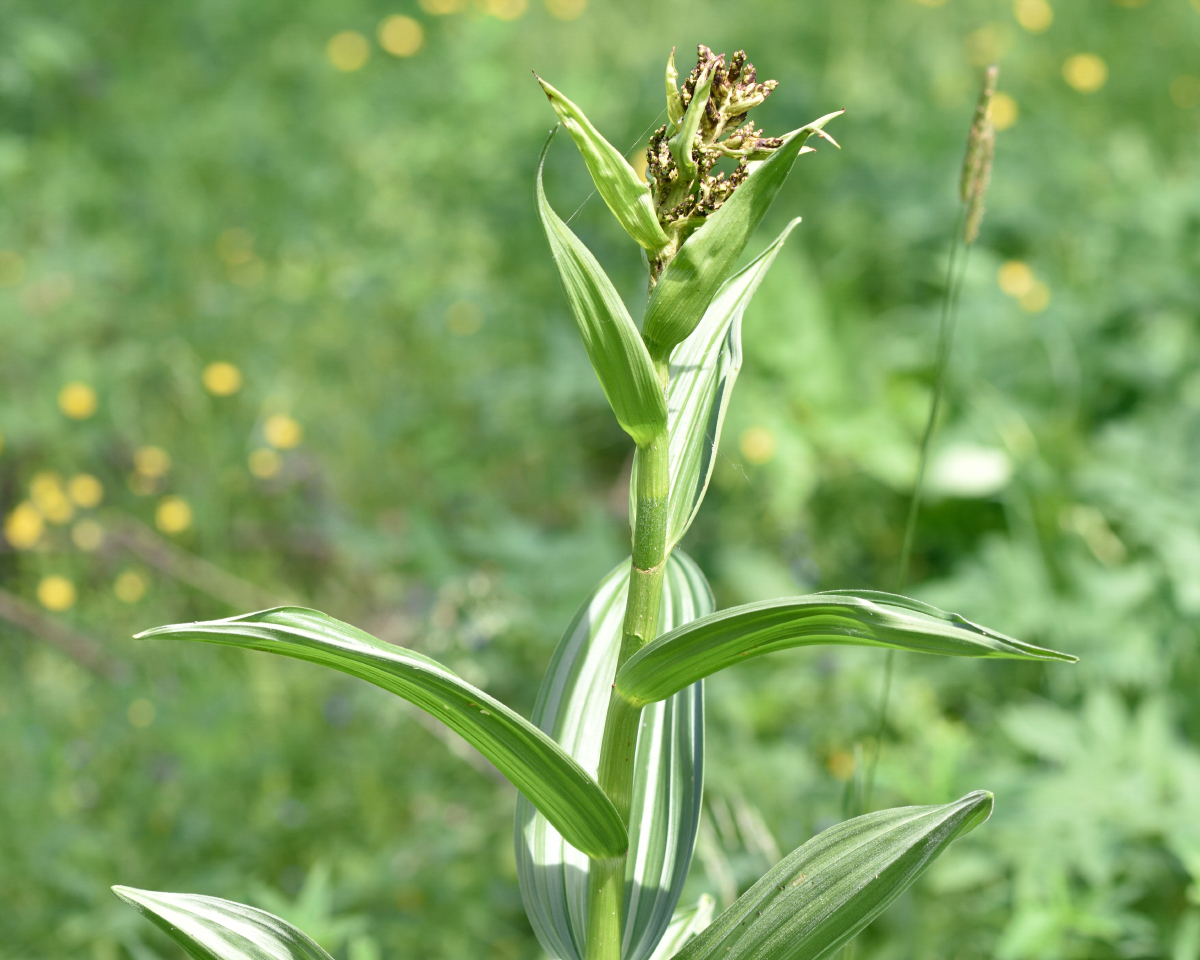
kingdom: Plantae
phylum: Tracheophyta
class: Liliopsida
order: Liliales
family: Melanthiaceae
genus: Veratrum
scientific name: Veratrum lobelianum
